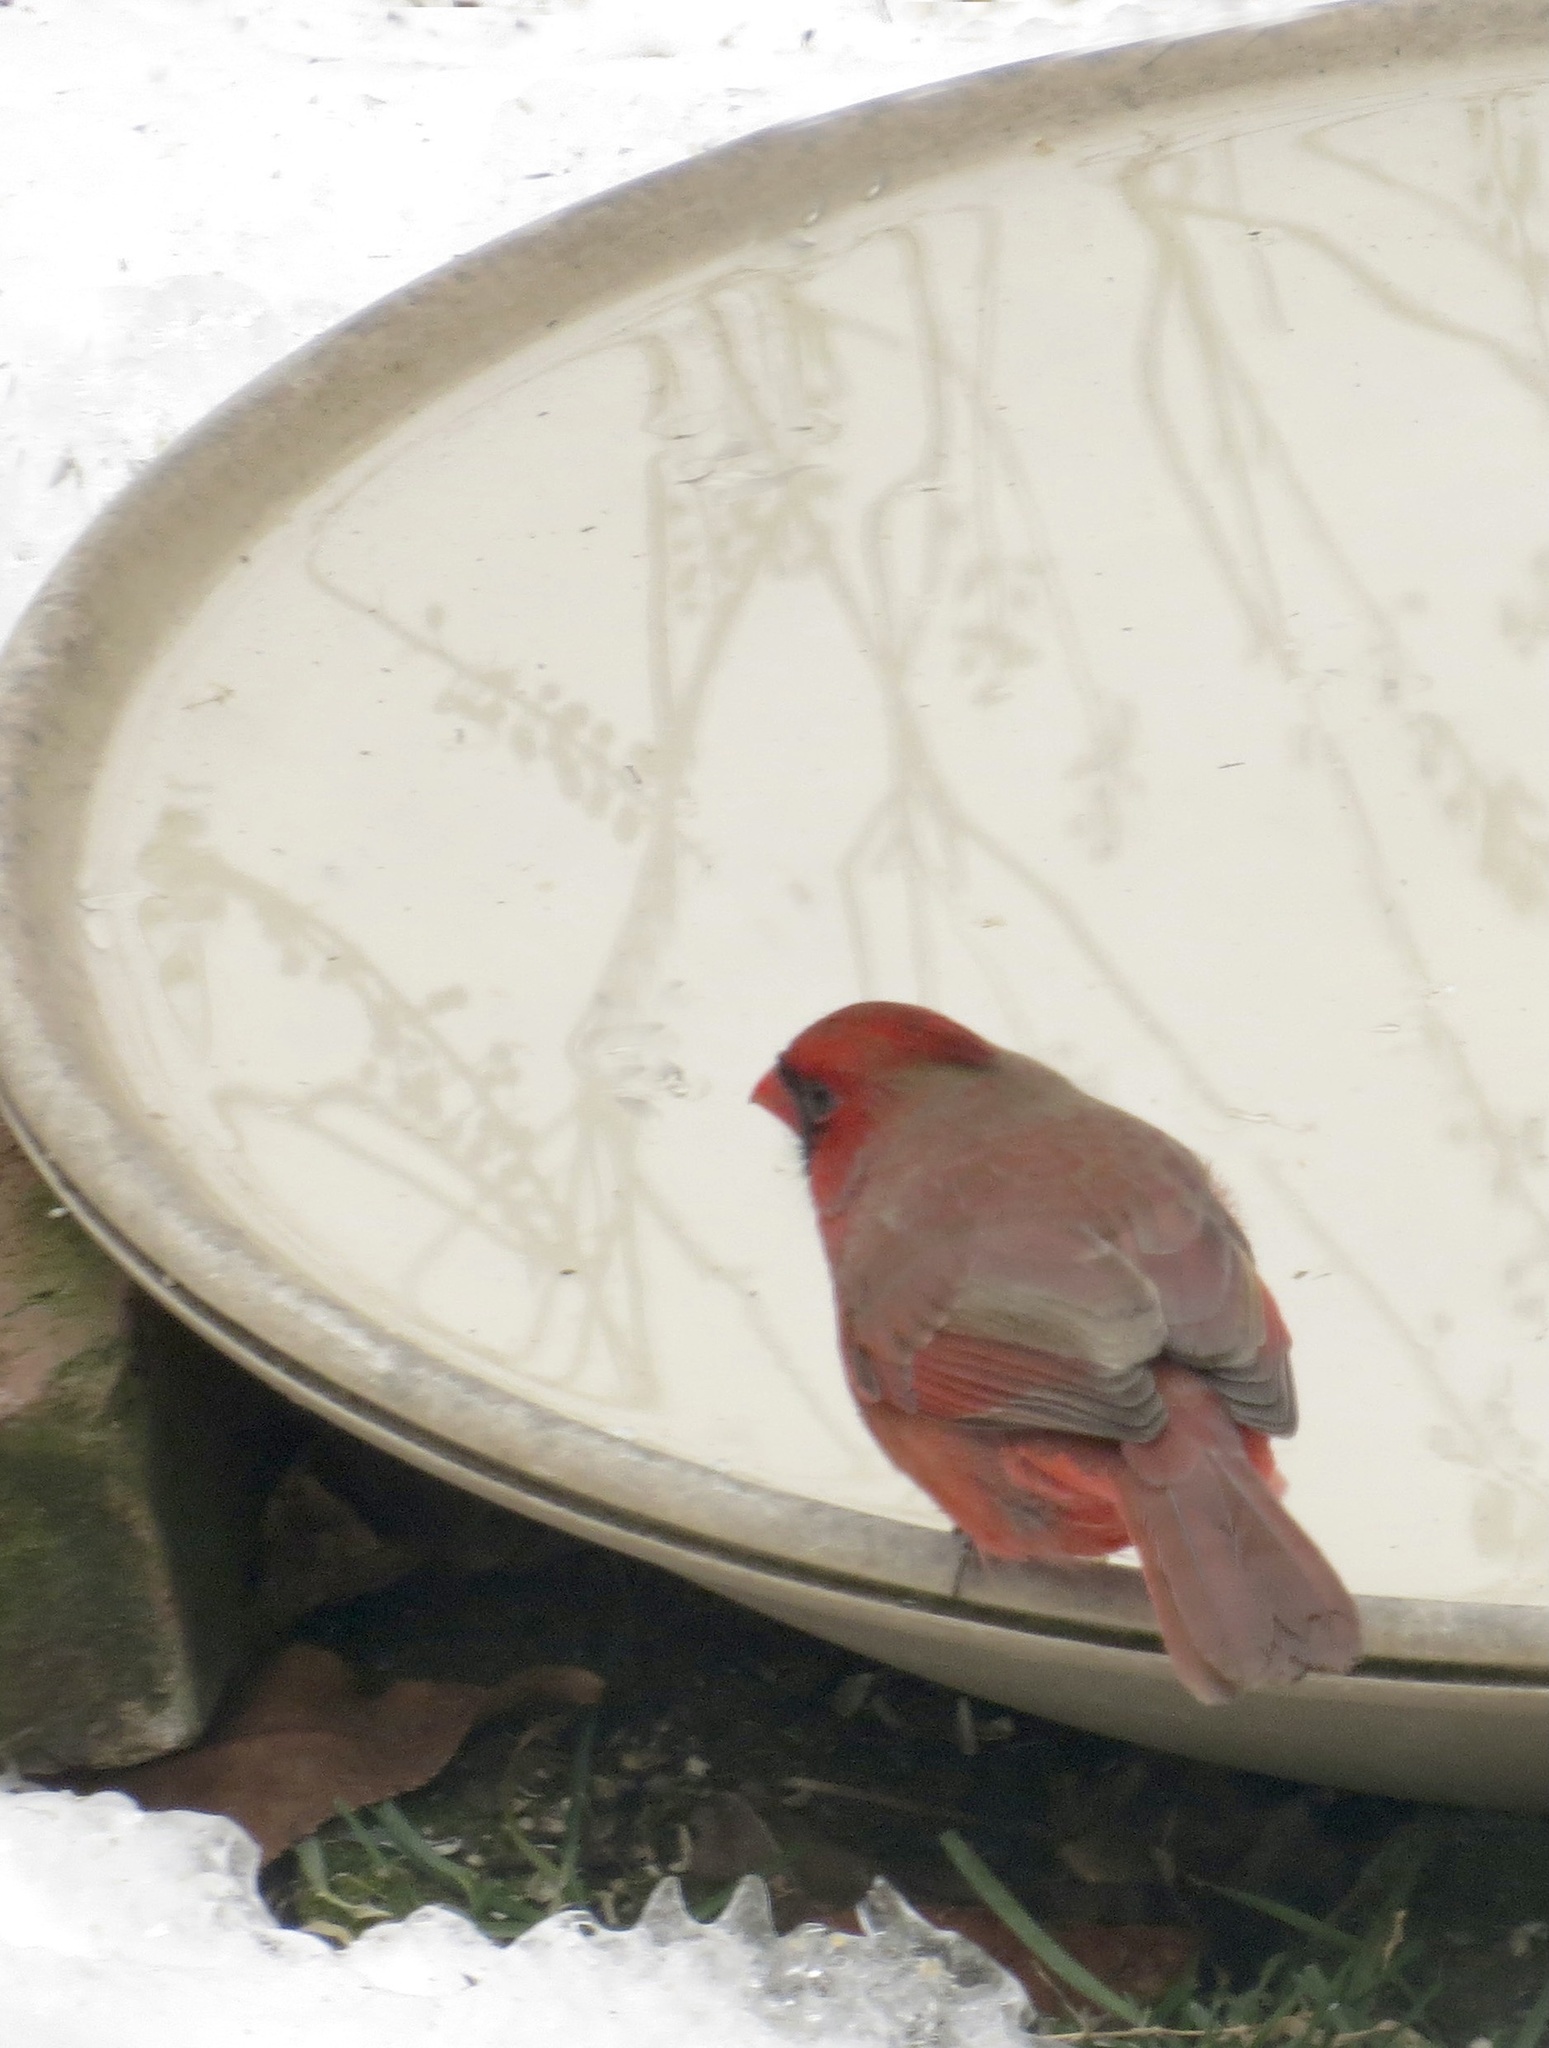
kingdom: Animalia
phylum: Chordata
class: Aves
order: Passeriformes
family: Cardinalidae
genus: Cardinalis
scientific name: Cardinalis cardinalis
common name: Northern cardinal
